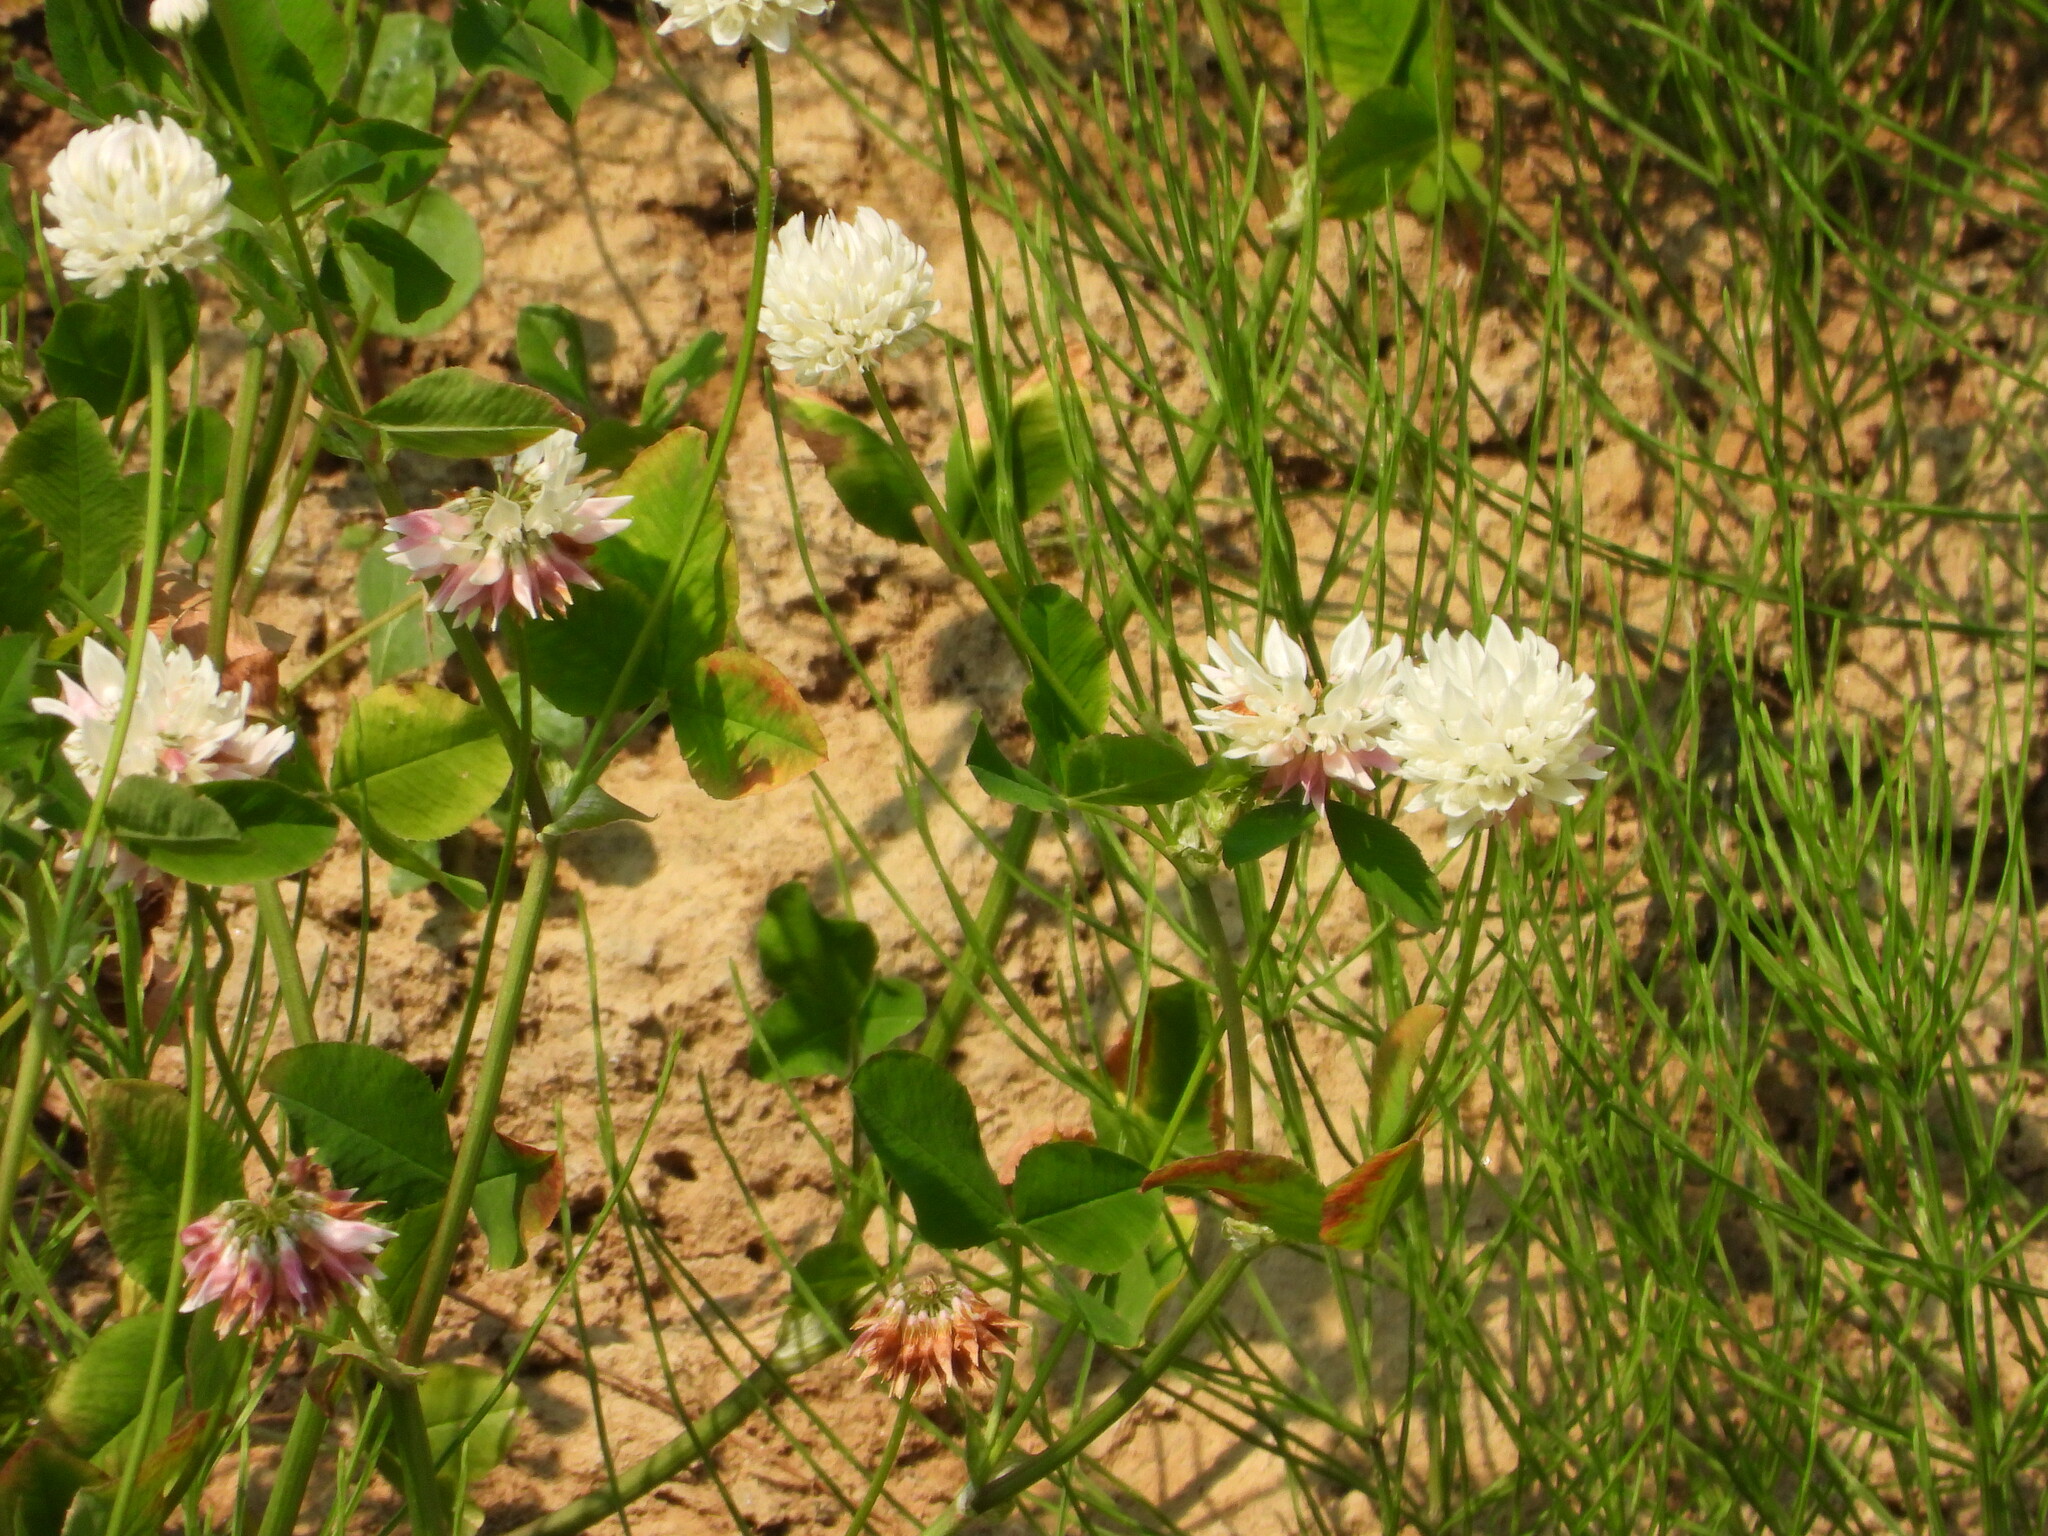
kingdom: Plantae
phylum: Tracheophyta
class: Magnoliopsida
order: Fabales
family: Fabaceae
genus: Trifolium
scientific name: Trifolium hybridum
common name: Alsike clover
